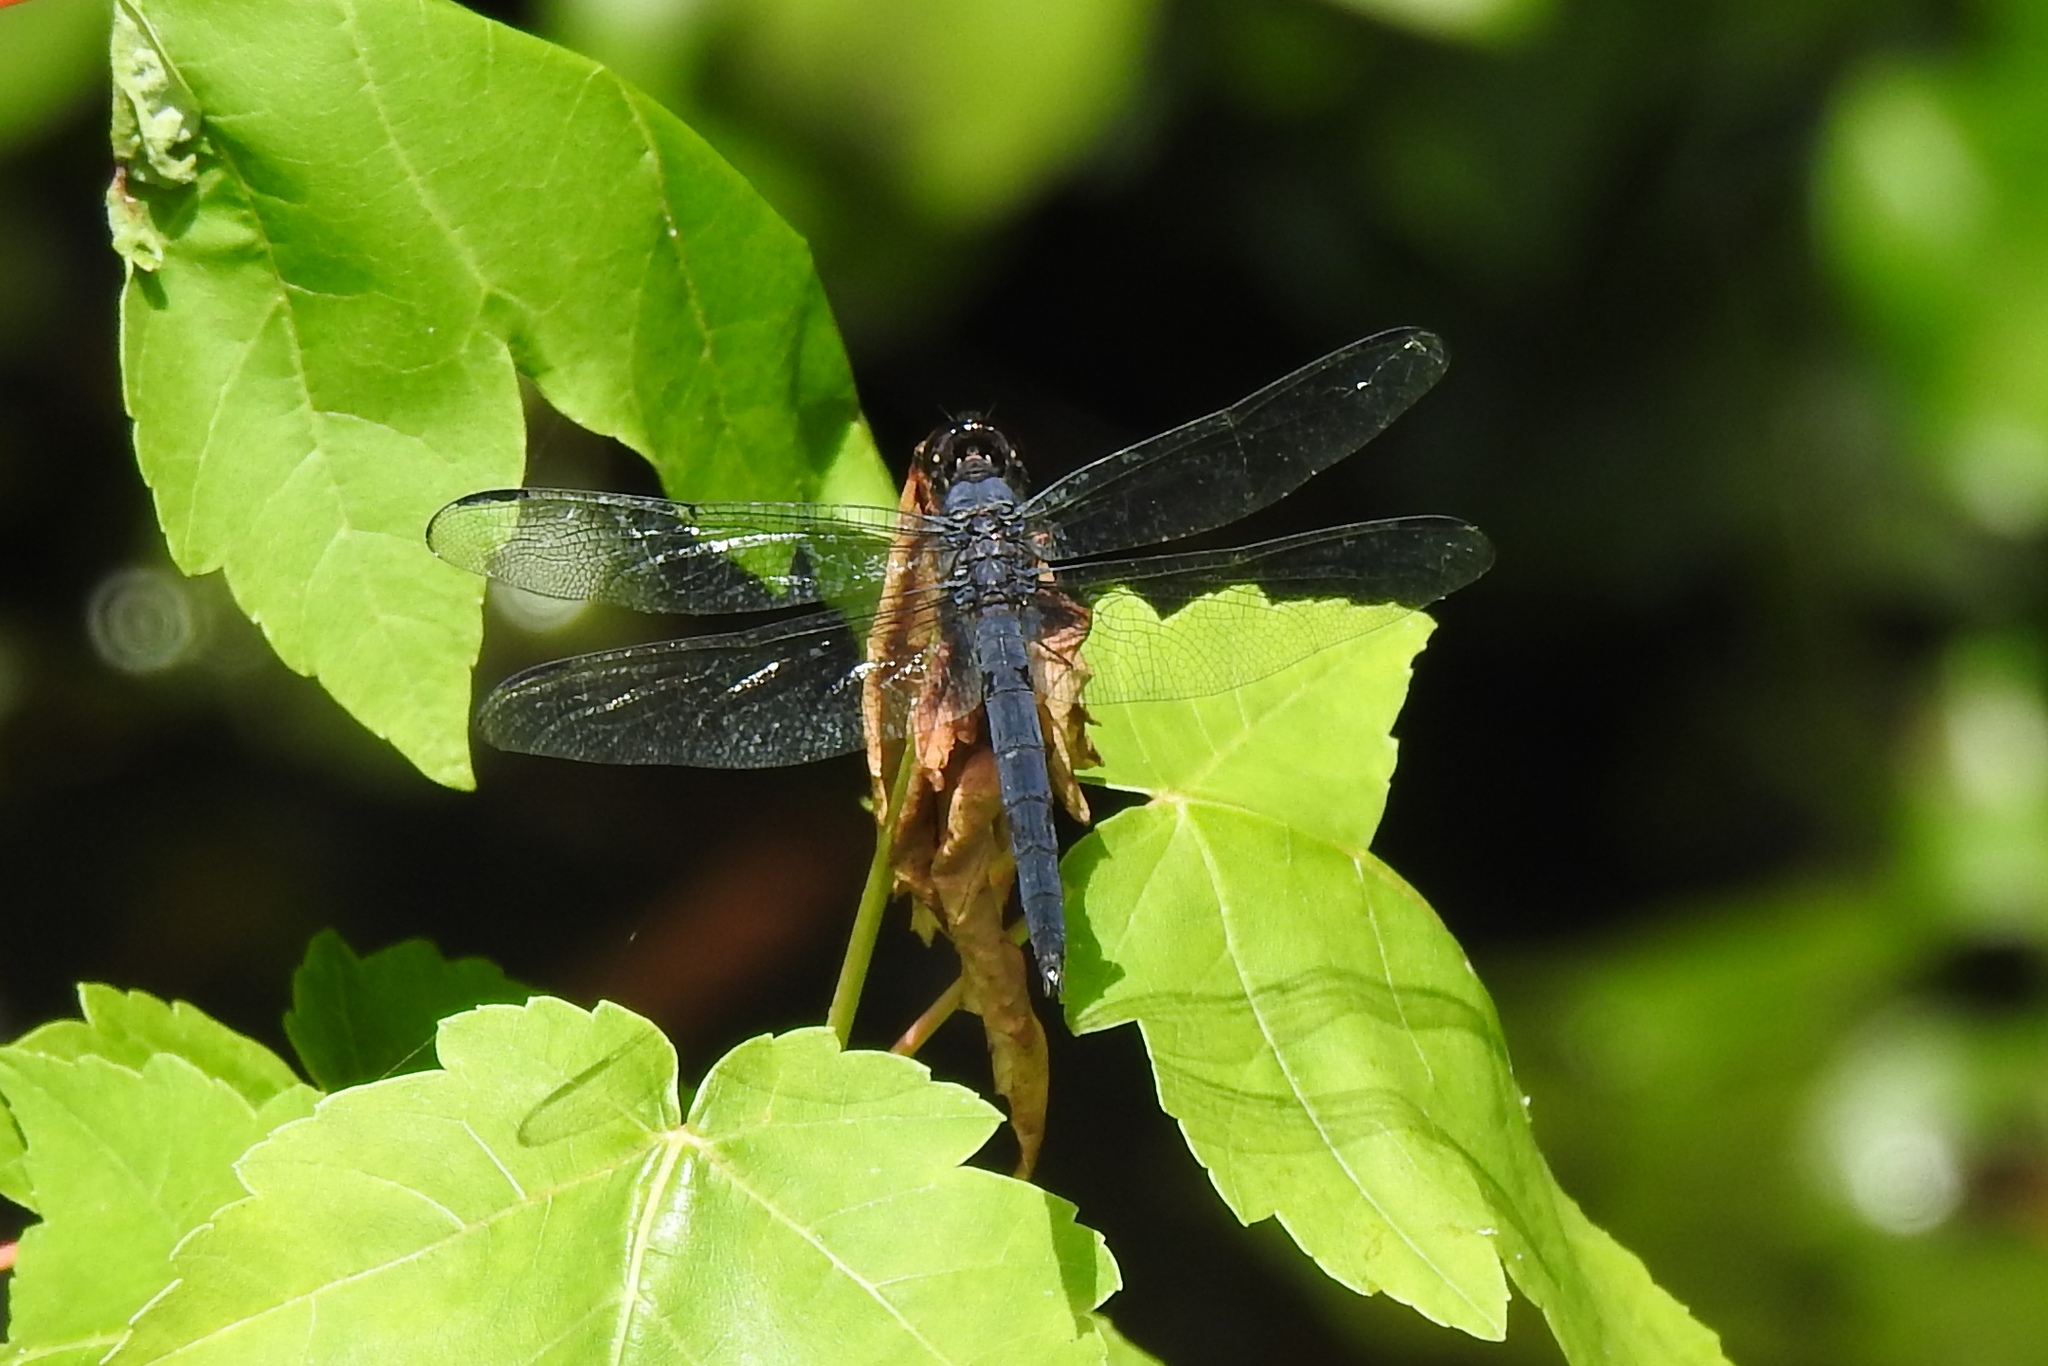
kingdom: Animalia
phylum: Arthropoda
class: Insecta
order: Odonata
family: Libellulidae
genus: Libellula
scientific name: Libellula incesta
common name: Slaty skimmer
